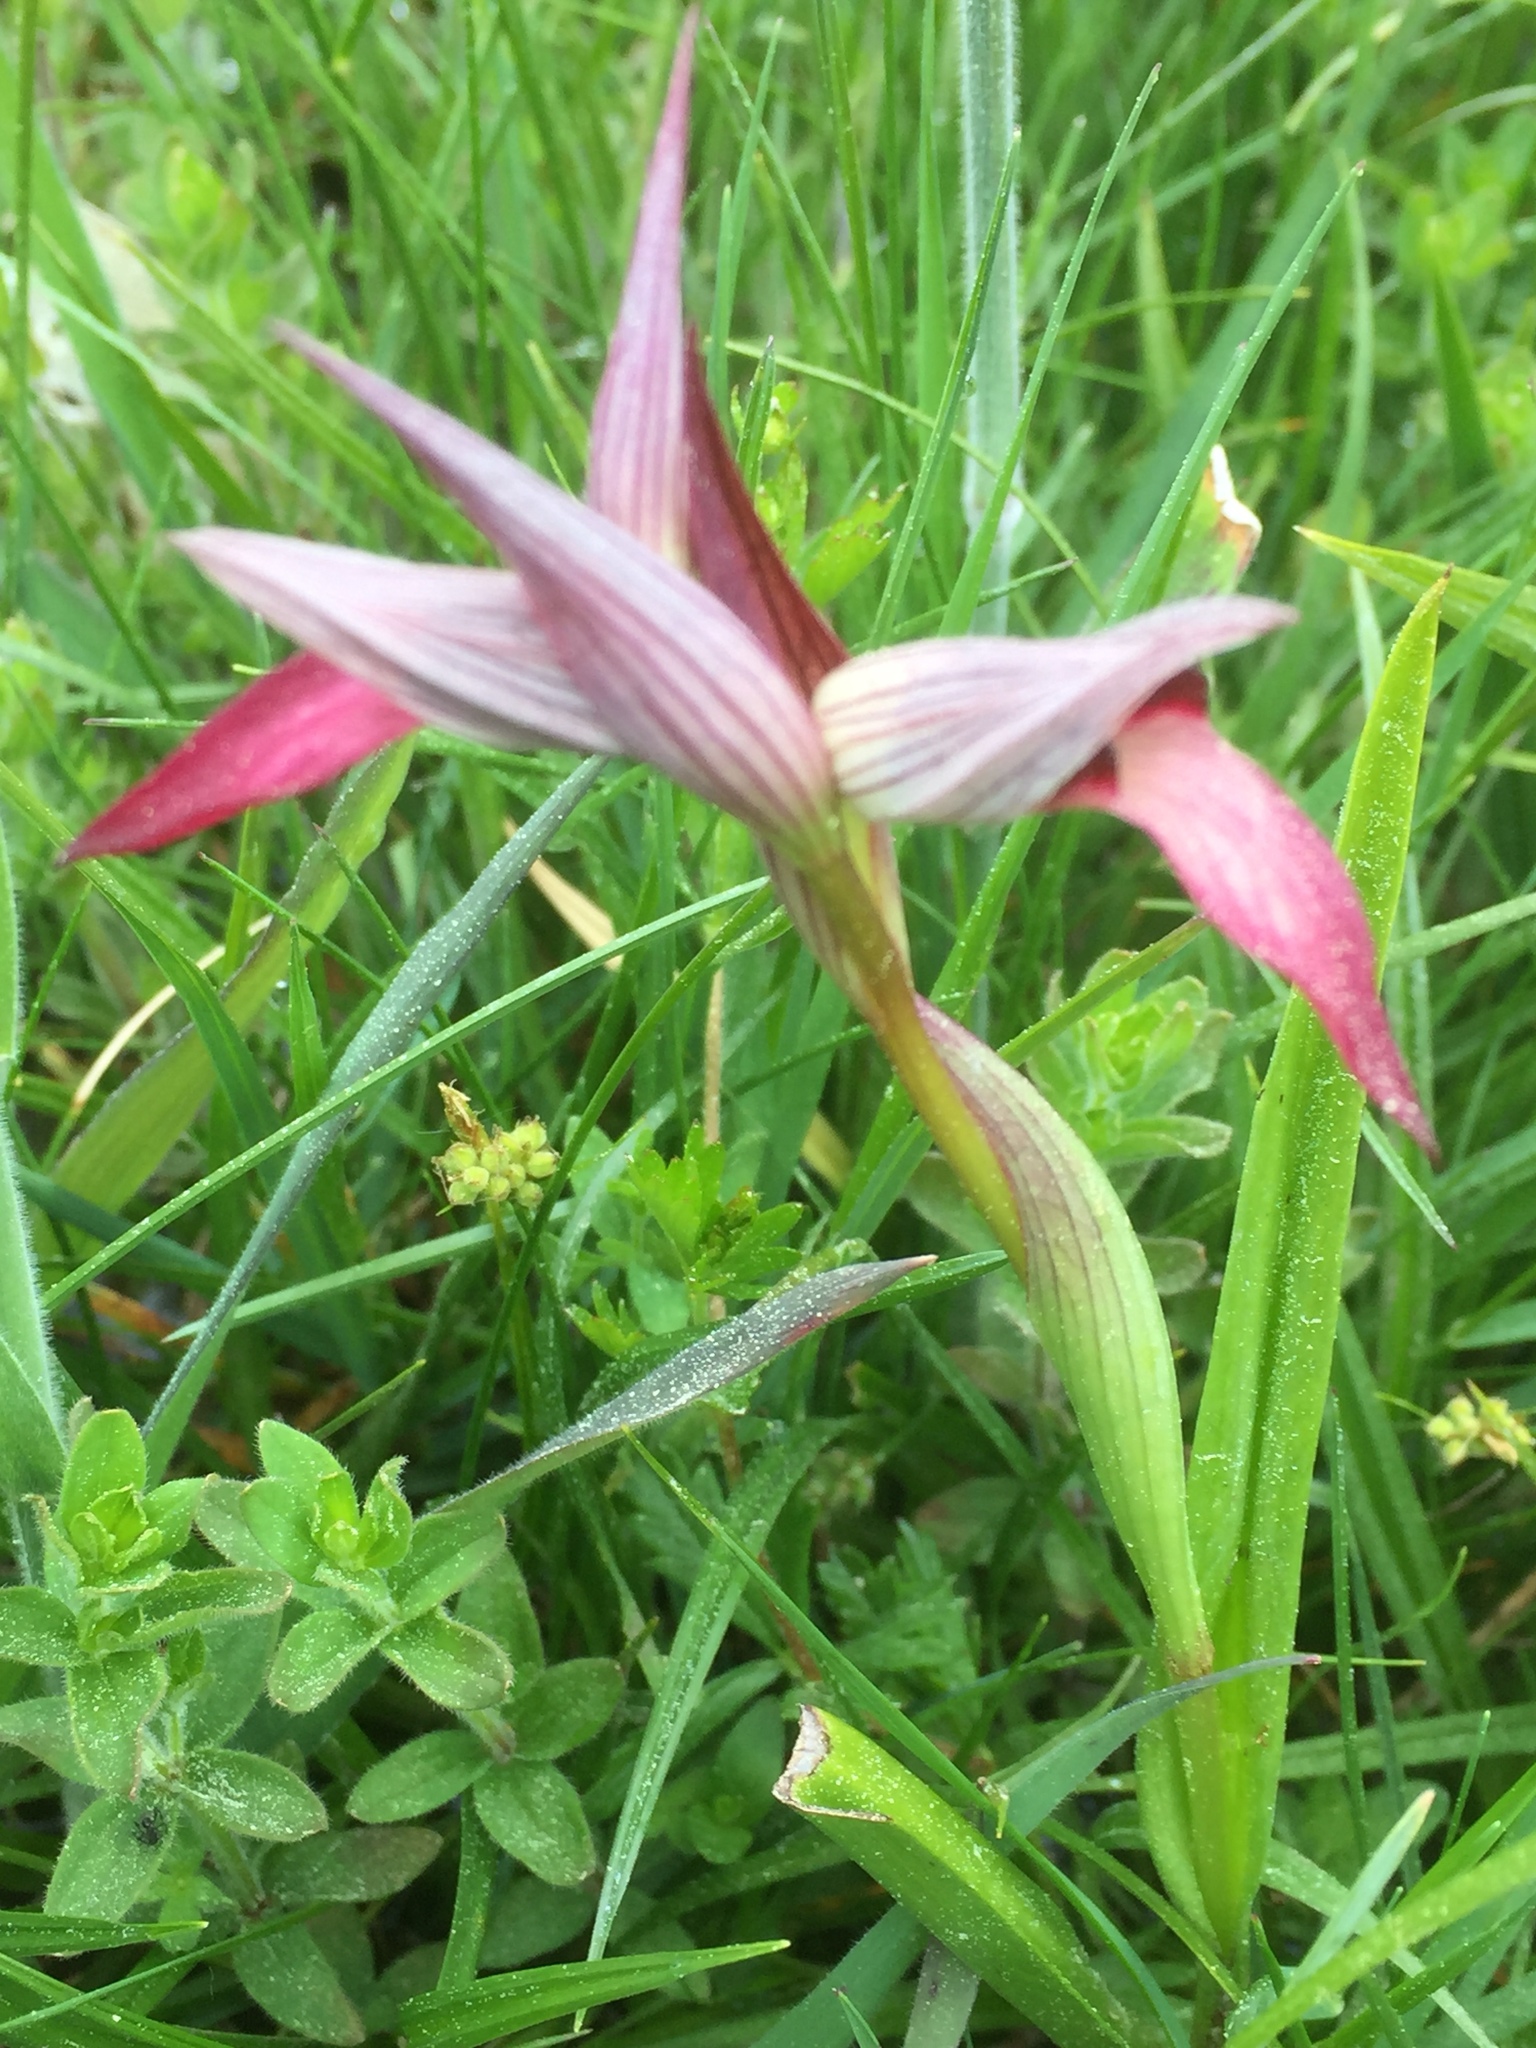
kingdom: Plantae
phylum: Tracheophyta
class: Liliopsida
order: Asparagales
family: Orchidaceae
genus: Serapias
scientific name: Serapias lingua
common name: Tongue-orchid
